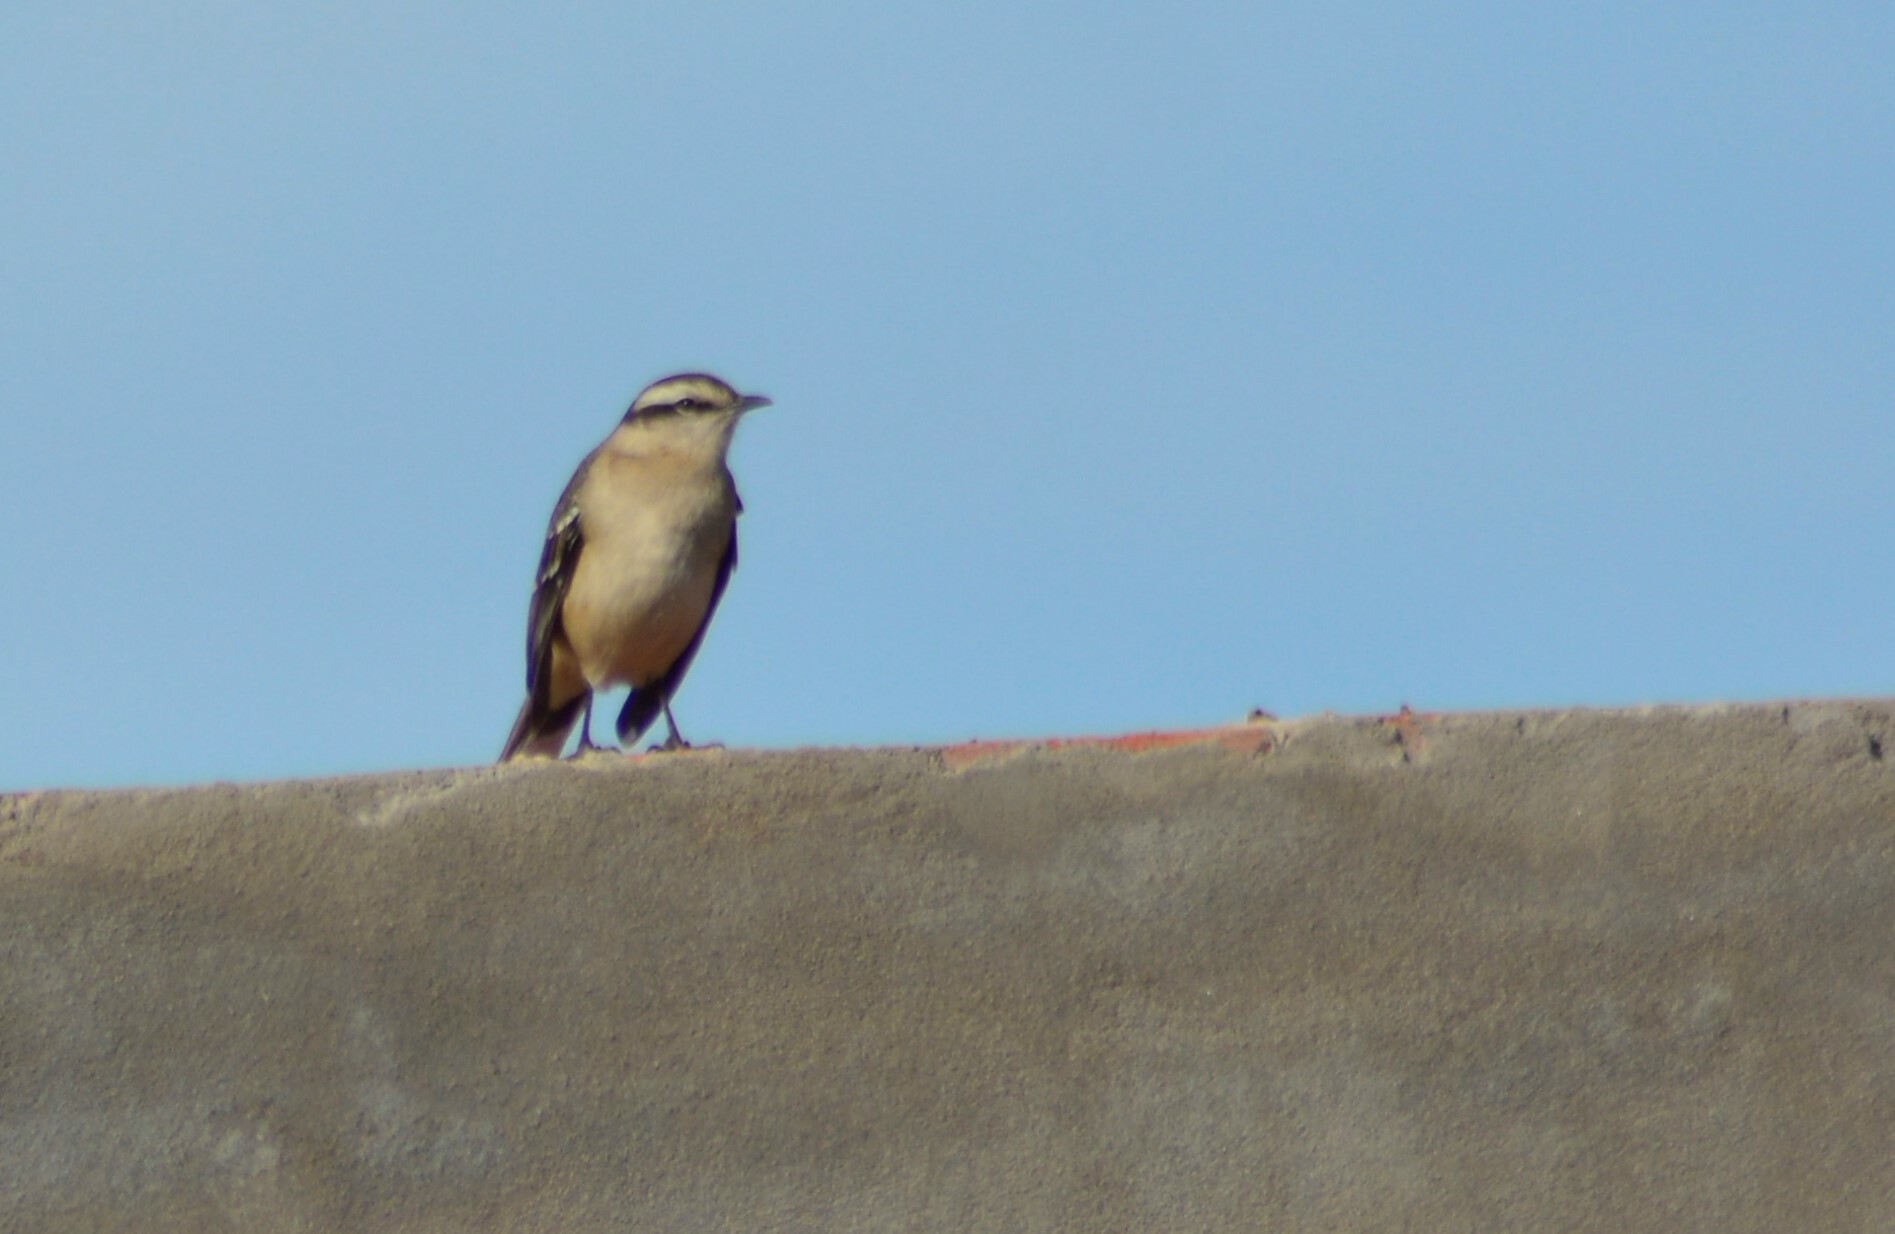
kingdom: Animalia
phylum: Chordata
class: Aves
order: Passeriformes
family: Mimidae
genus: Mimus
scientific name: Mimus saturninus
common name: Chalk-browed mockingbird
